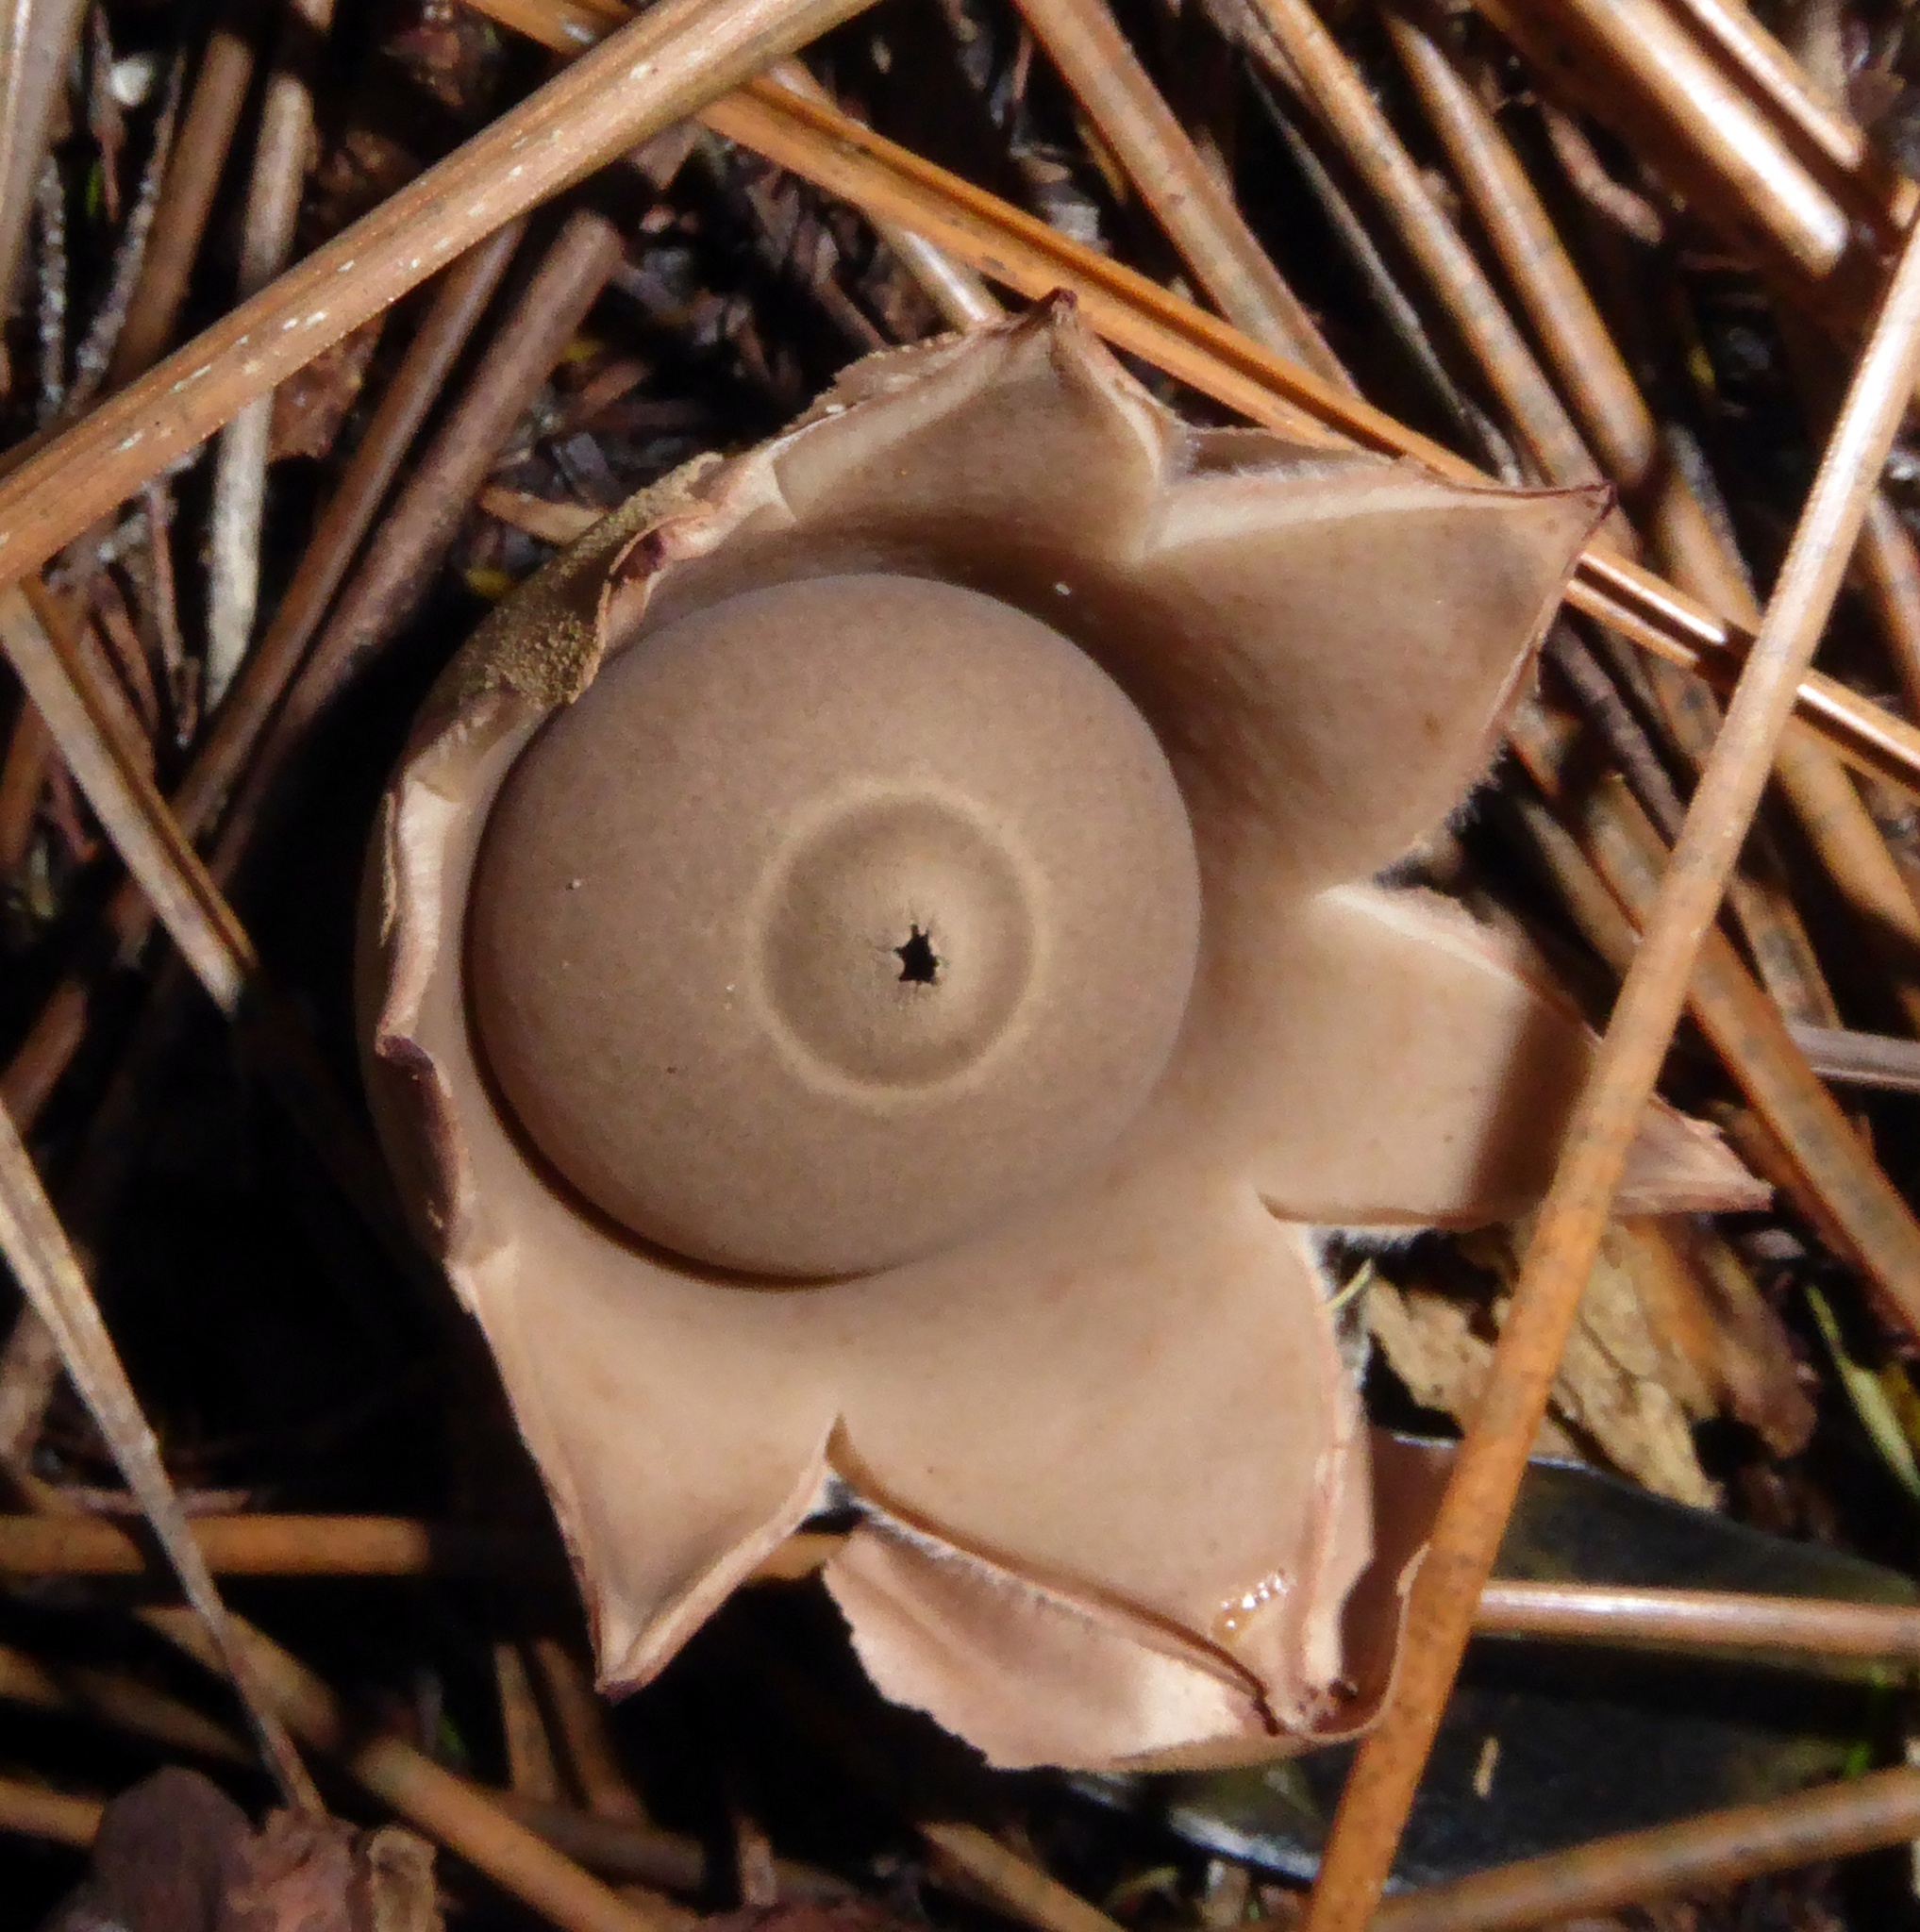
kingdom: Fungi
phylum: Basidiomycota
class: Agaricomycetes
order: Geastrales
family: Geastraceae
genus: Geastrum
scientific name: Geastrum velutinum
